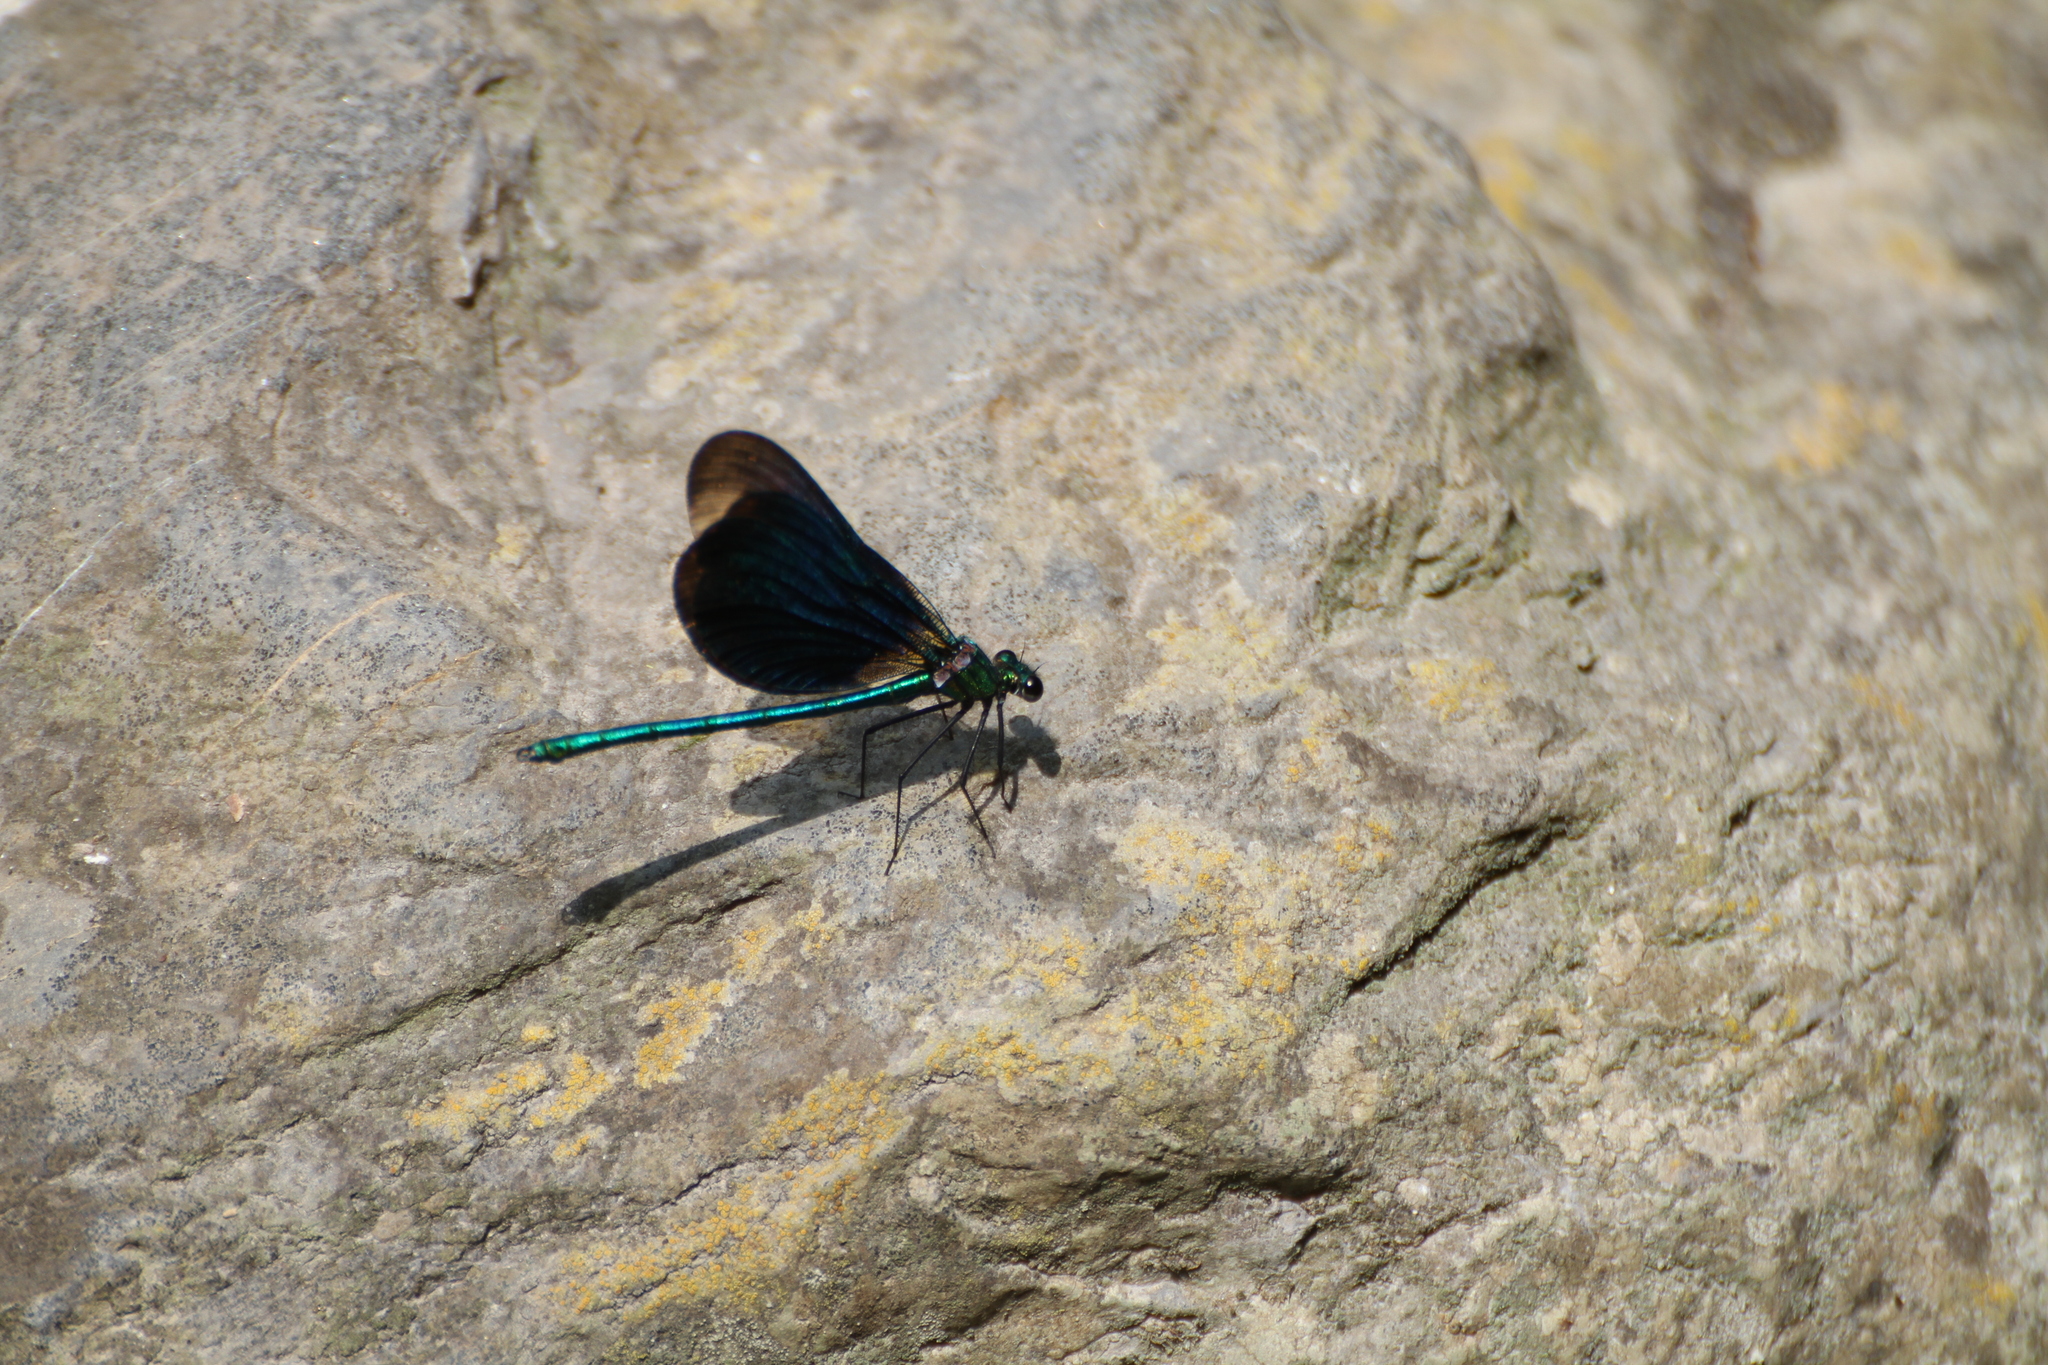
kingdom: Animalia
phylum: Arthropoda
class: Insecta
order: Odonata
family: Calopterygidae
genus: Calopteryx
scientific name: Calopteryx virgo
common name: Beautiful demoiselle
